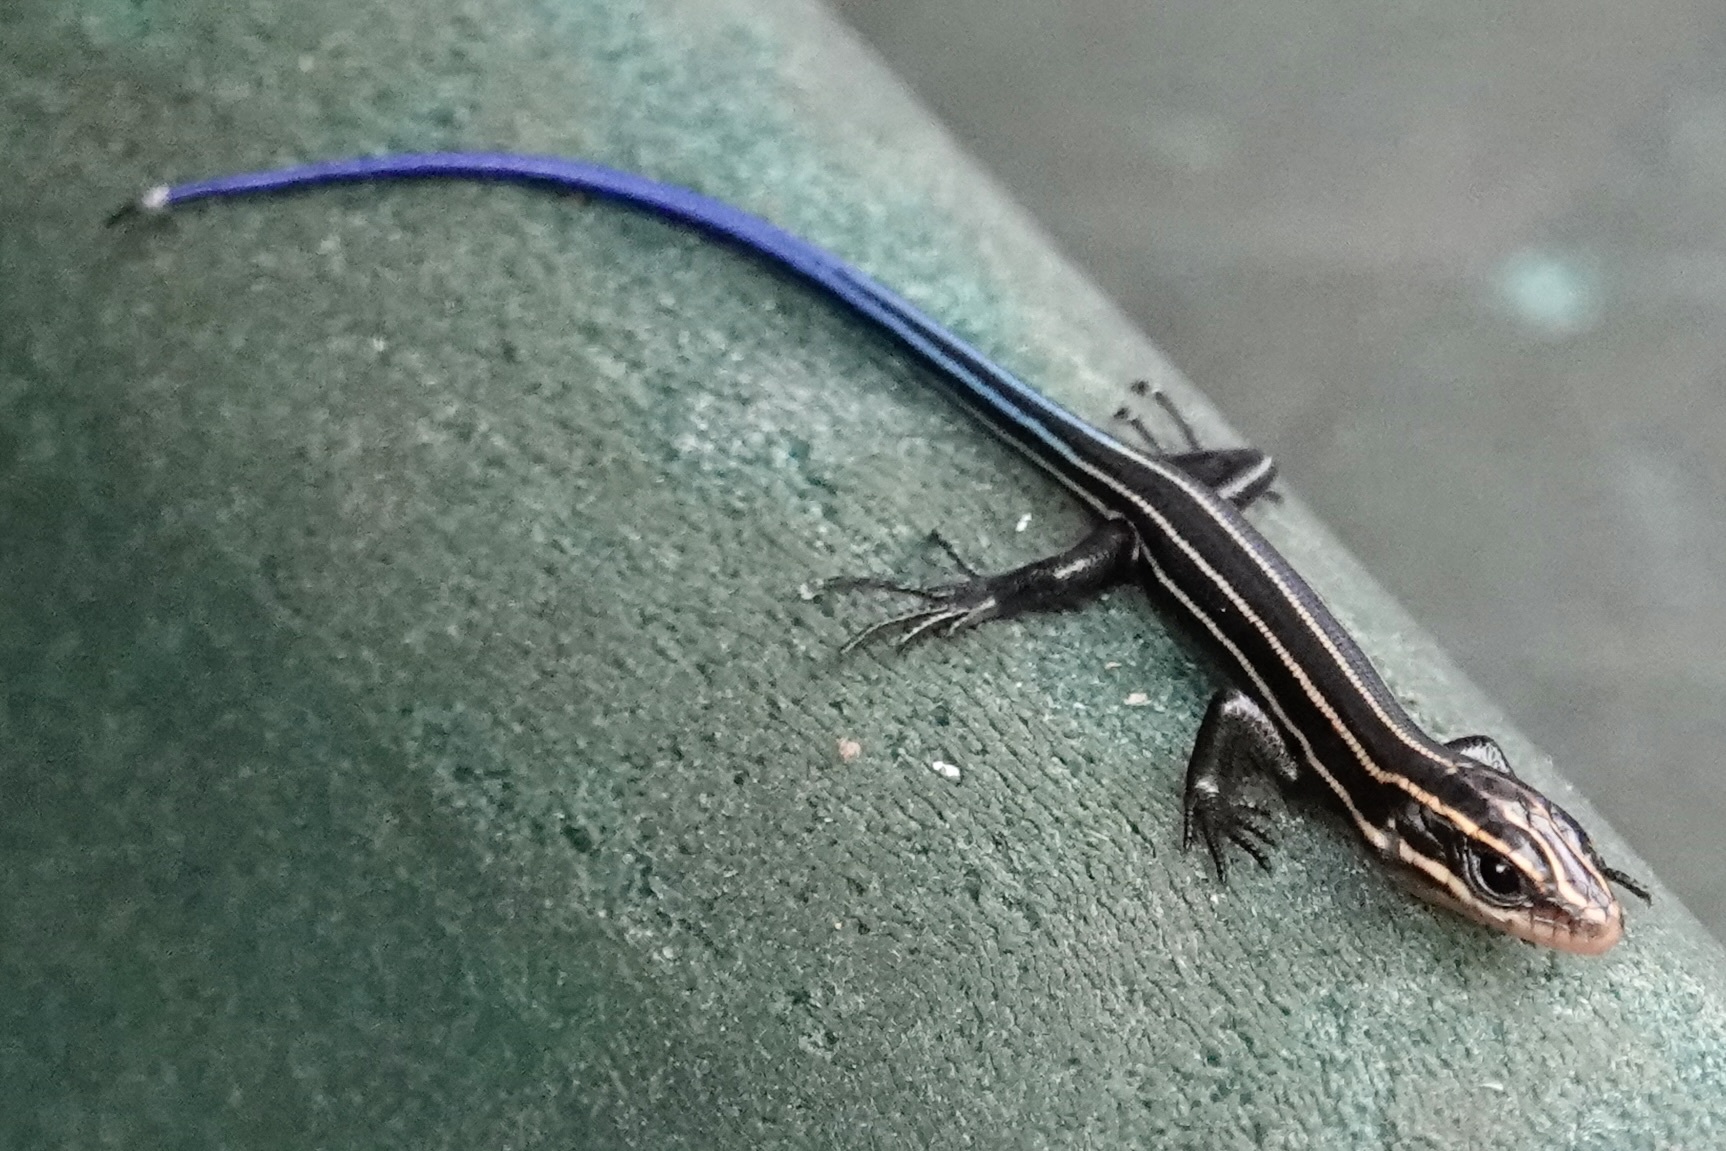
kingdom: Animalia
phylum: Chordata
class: Squamata
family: Scincidae
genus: Plestiodon
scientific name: Plestiodon fasciatus
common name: Five-lined skink
